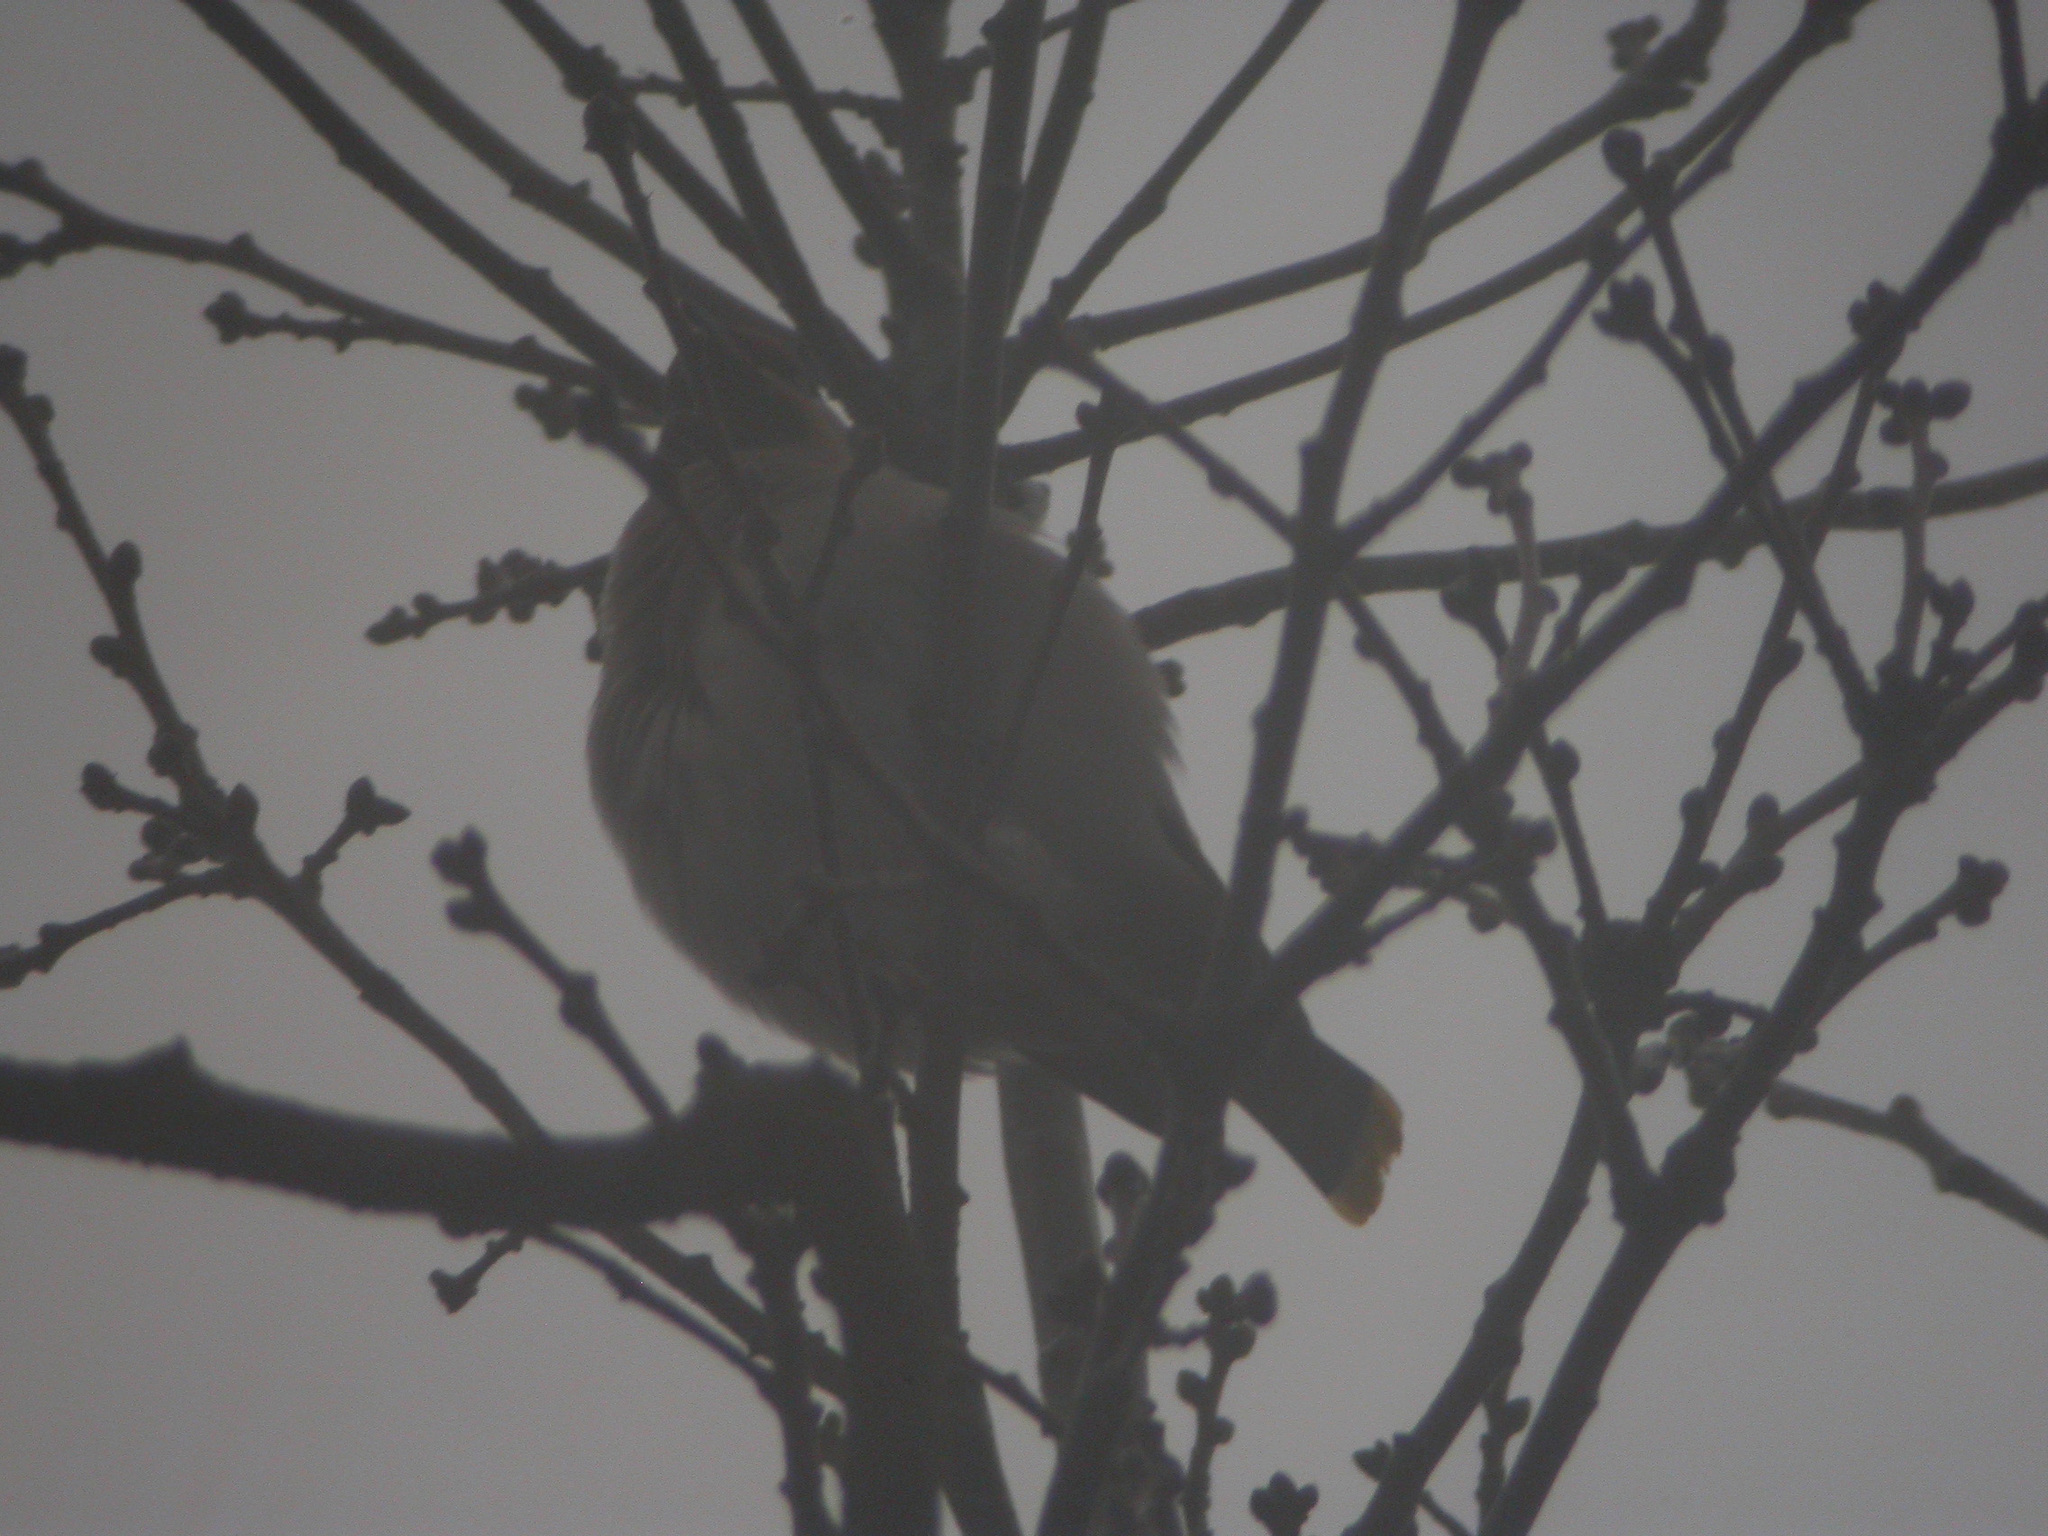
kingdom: Animalia
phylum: Chordata
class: Aves
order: Passeriformes
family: Bombycillidae
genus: Bombycilla
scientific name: Bombycilla garrulus
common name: Bohemian waxwing
